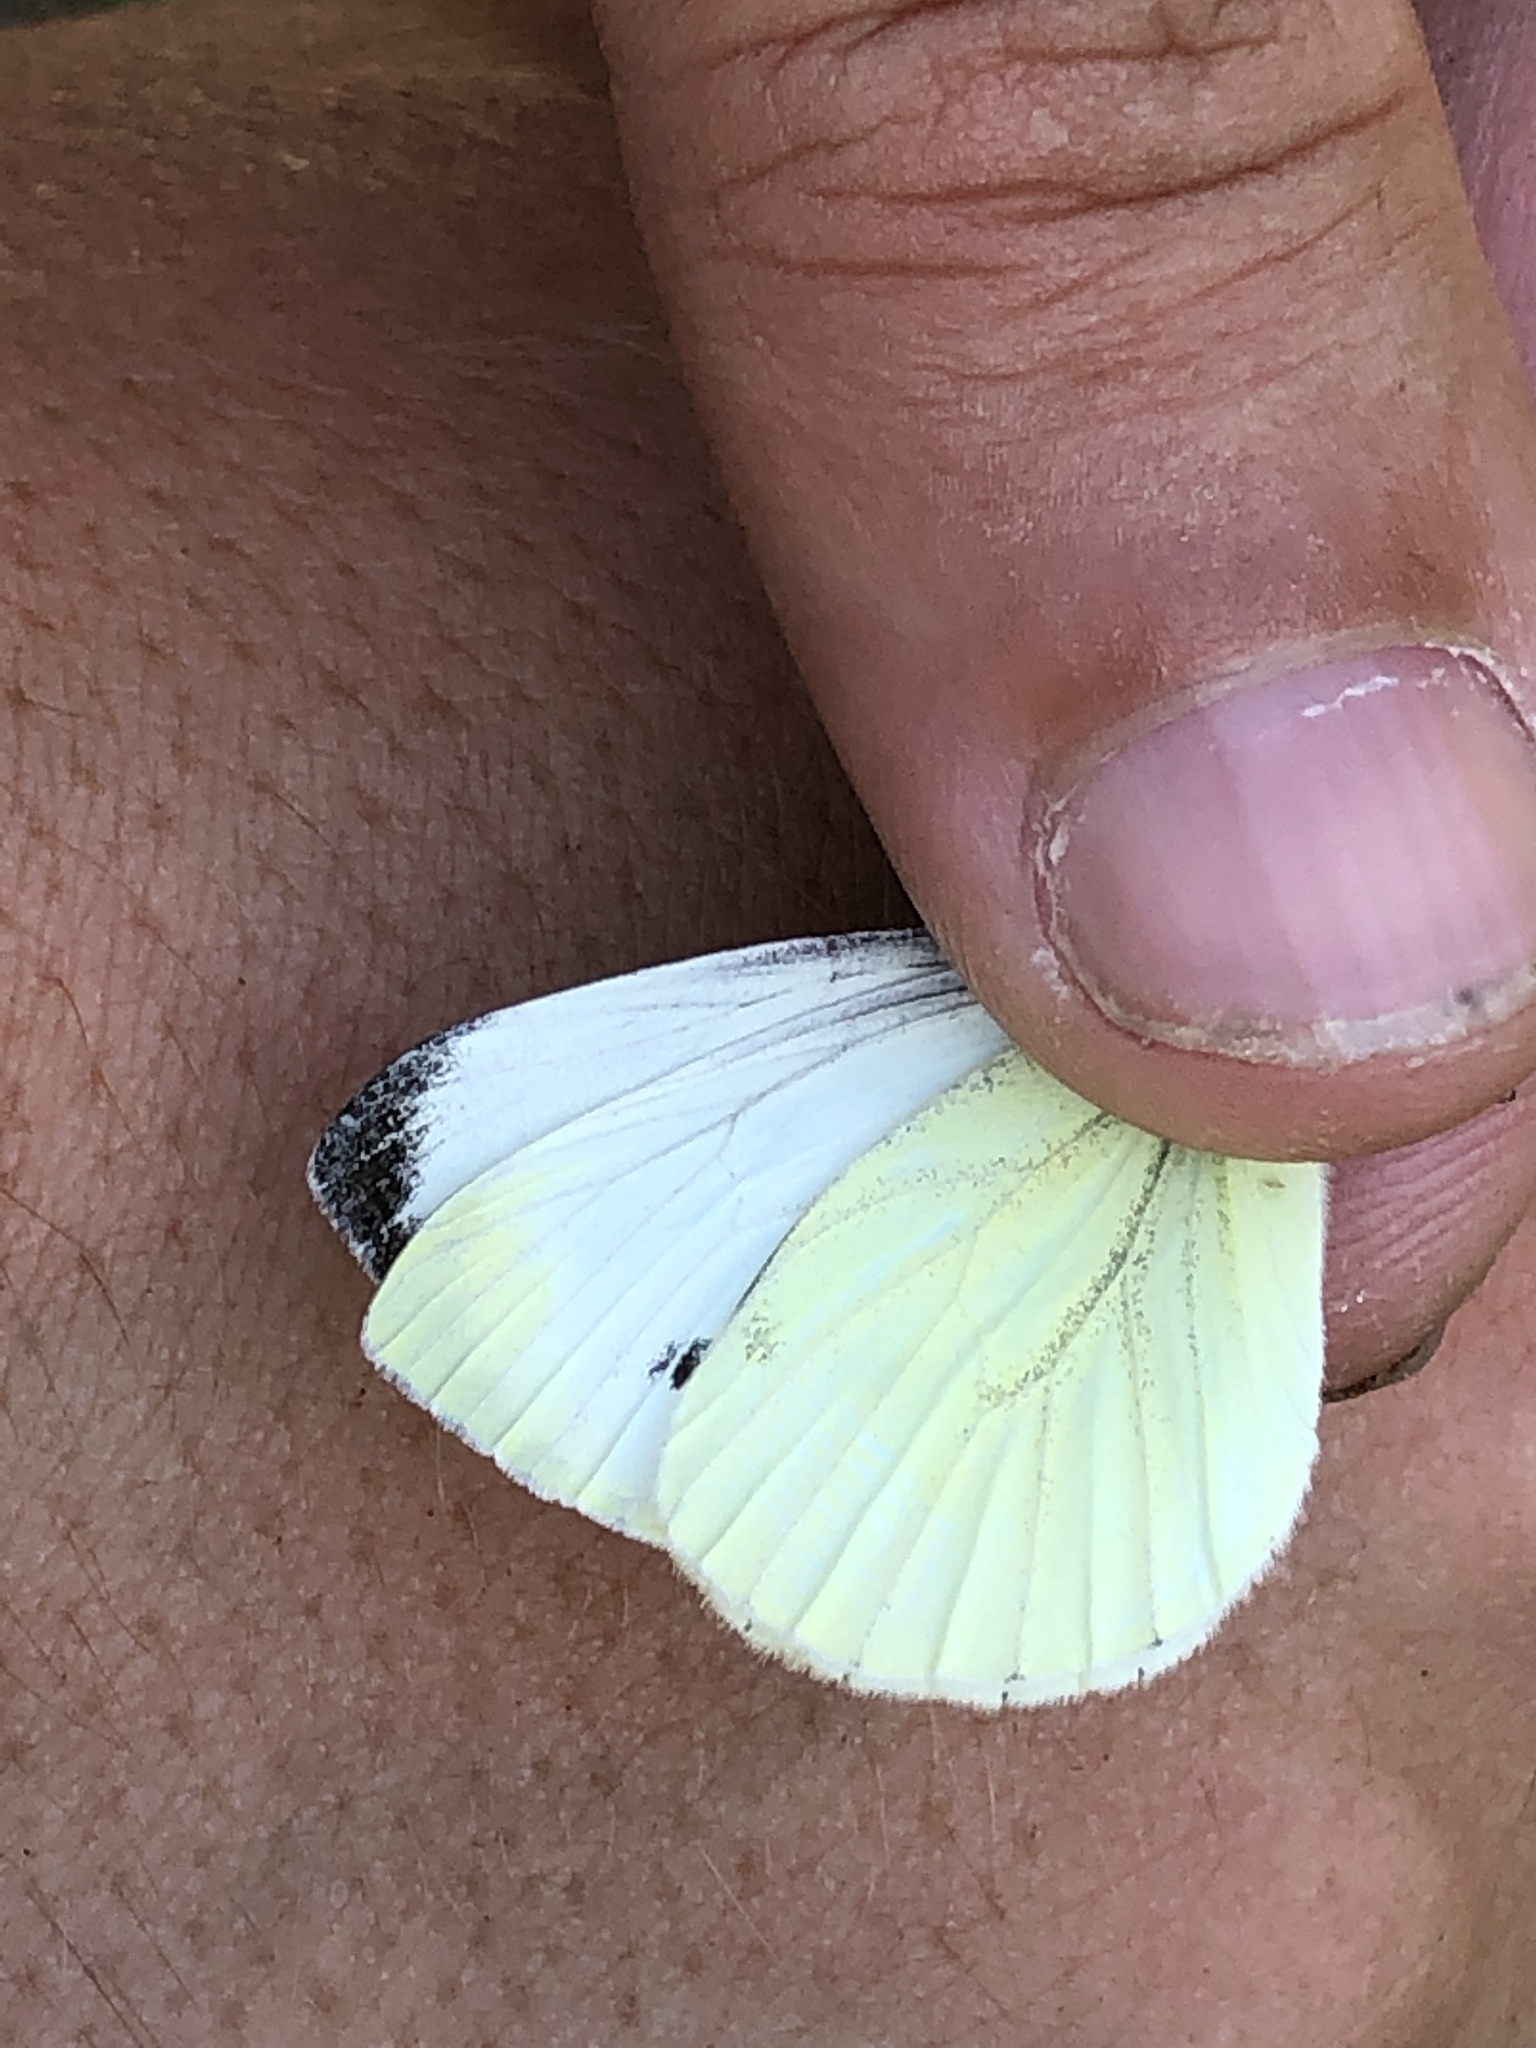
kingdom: Animalia
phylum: Arthropoda
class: Insecta
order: Lepidoptera
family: Pieridae
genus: Pieris
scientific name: Pieris napi
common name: Green-veined white
